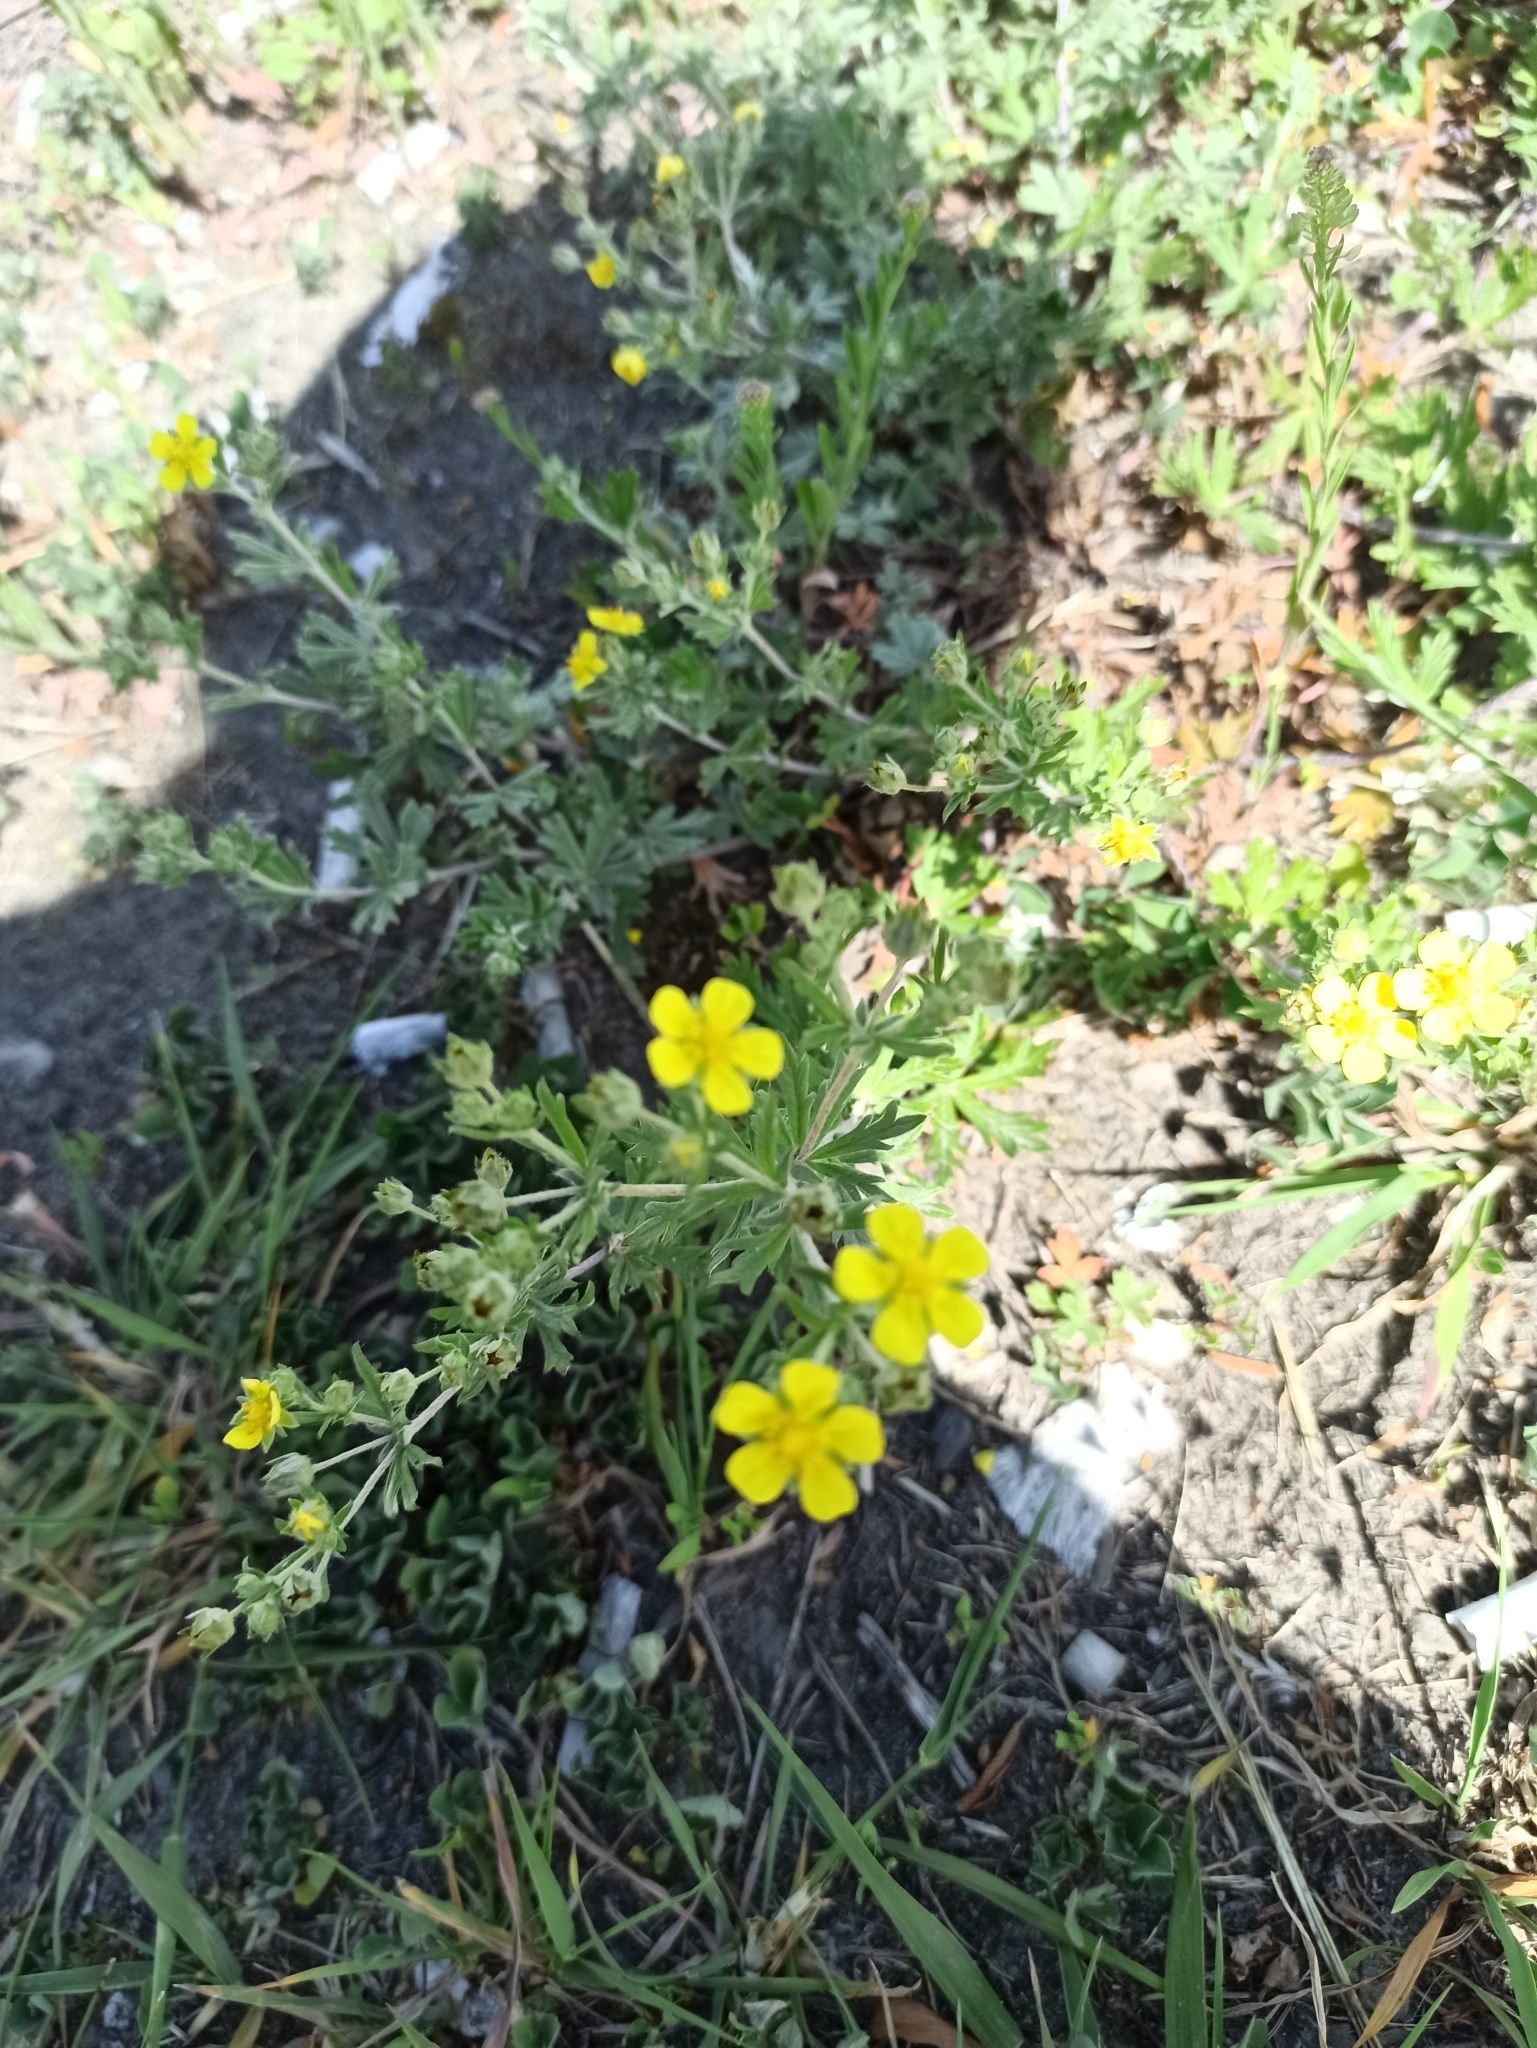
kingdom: Plantae
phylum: Tracheophyta
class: Magnoliopsida
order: Rosales
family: Rosaceae
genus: Potentilla
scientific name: Potentilla argentea
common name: Hoary cinquefoil
